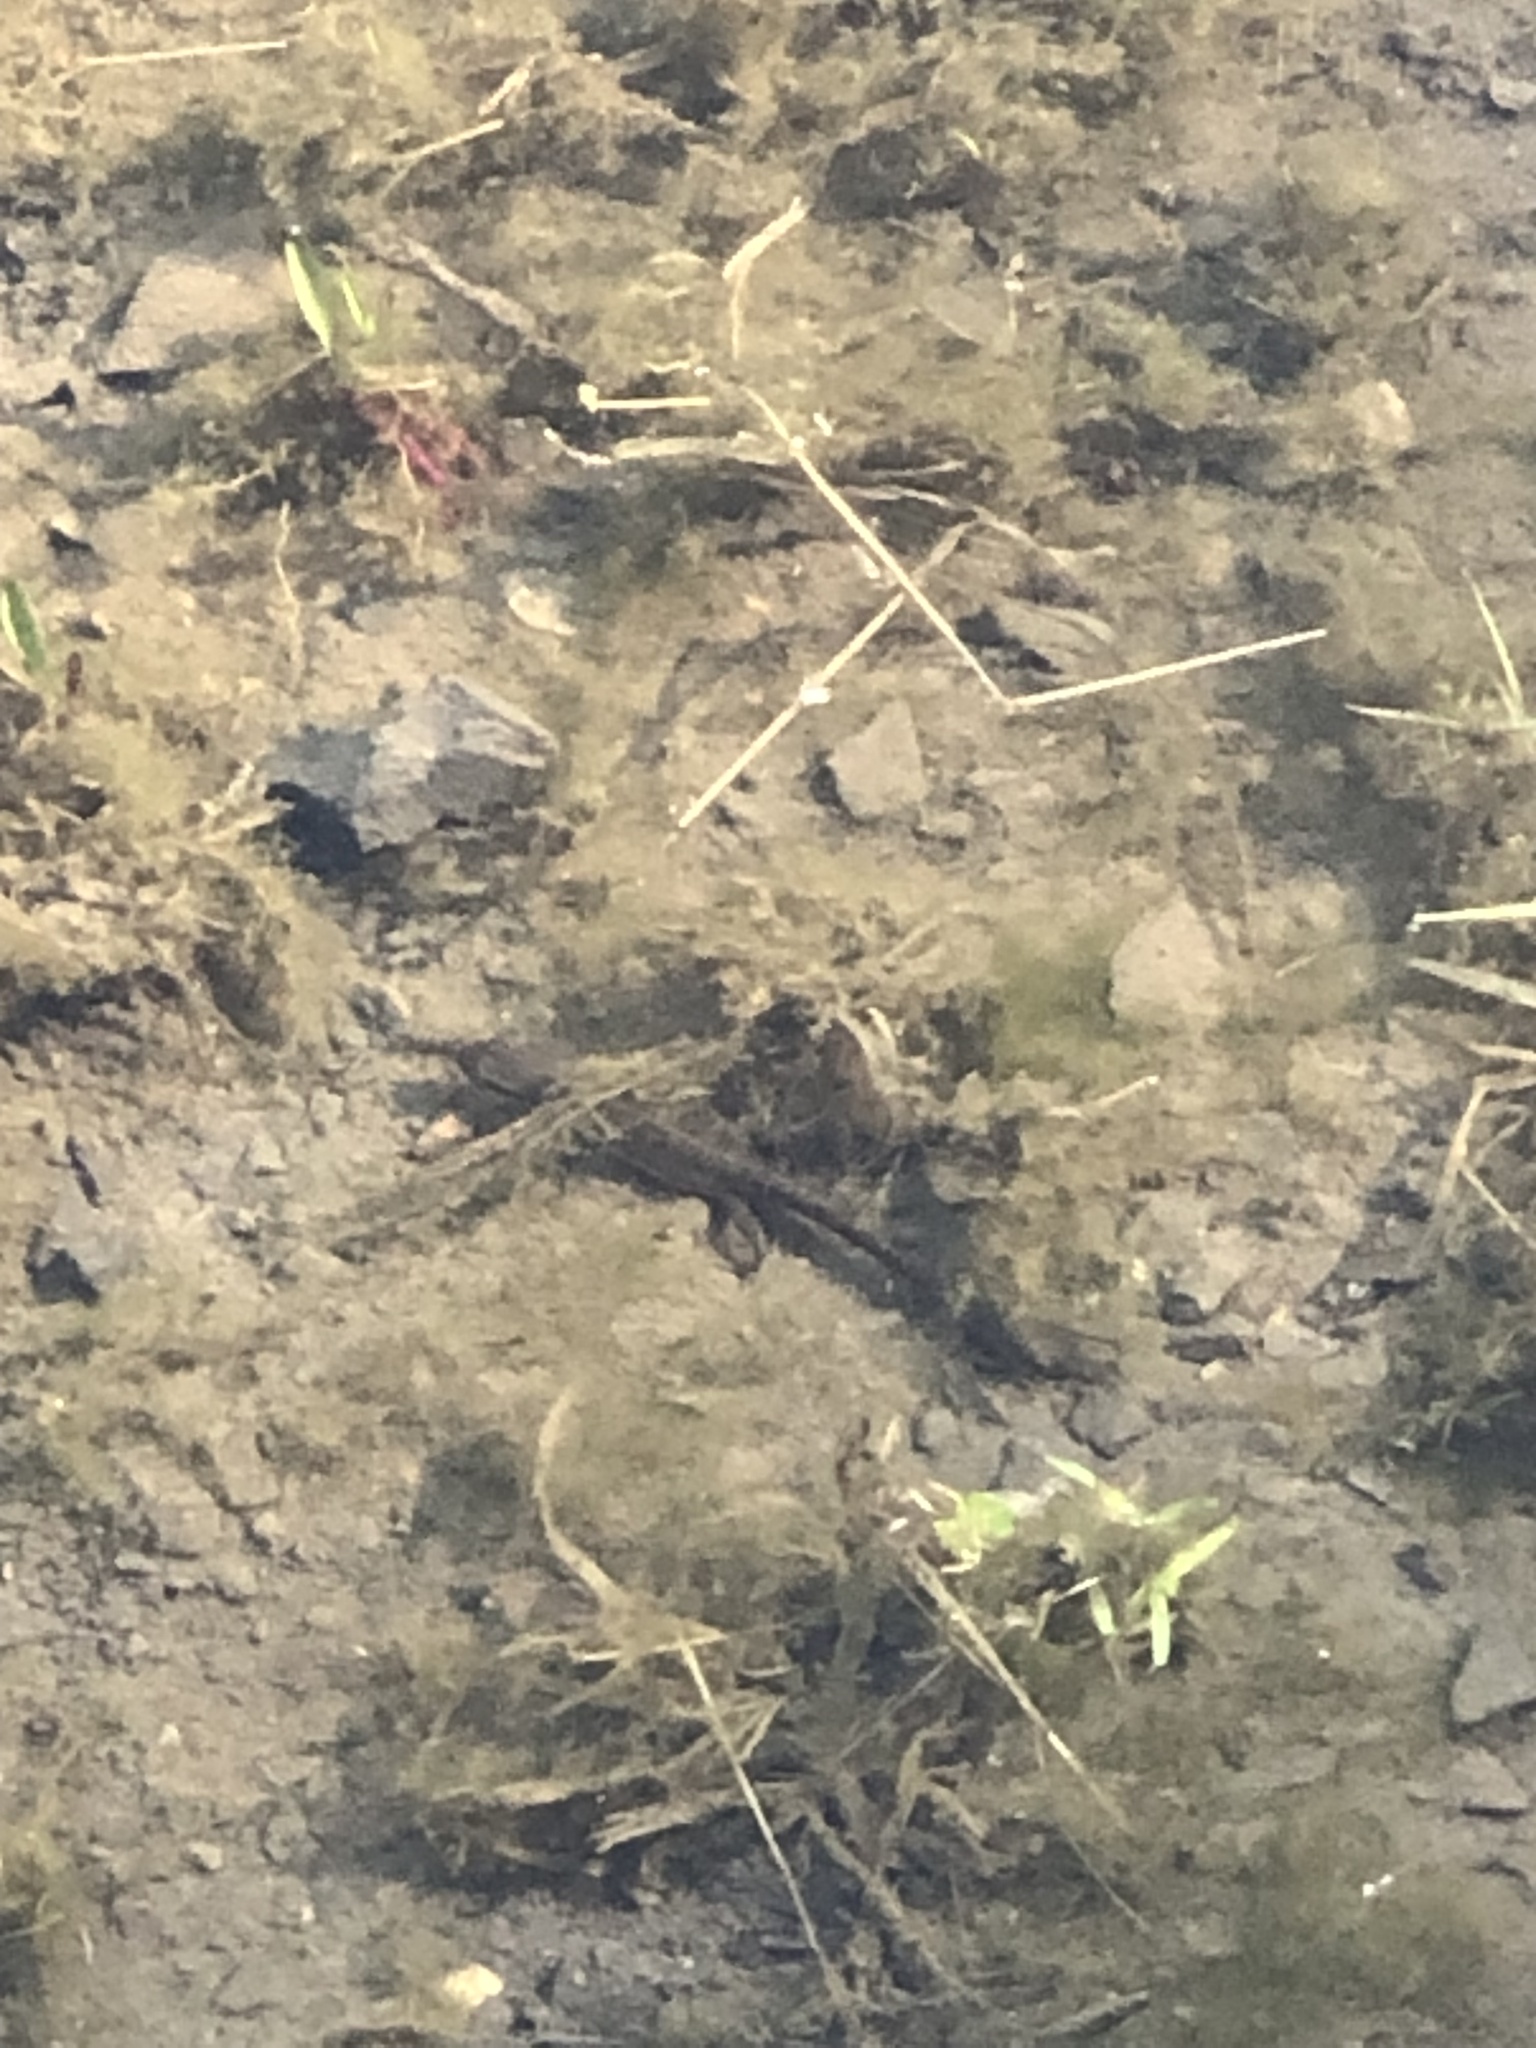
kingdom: Animalia
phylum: Chordata
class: Amphibia
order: Caudata
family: Salamandridae
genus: Notophthalmus
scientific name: Notophthalmus viridescens
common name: Eastern newt
